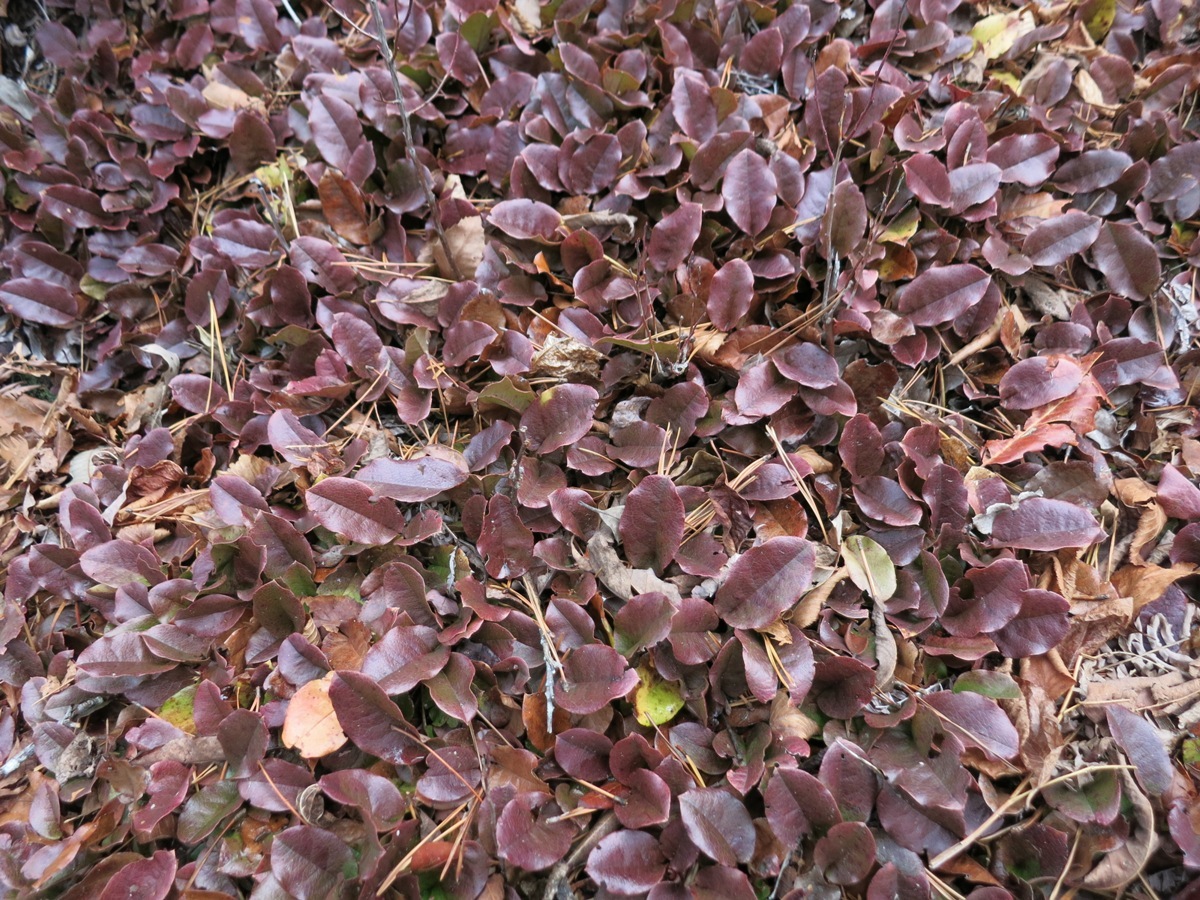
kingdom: Plantae
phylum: Tracheophyta
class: Magnoliopsida
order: Ericales
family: Ericaceae
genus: Epigaea
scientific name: Epigaea repens
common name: Gravelroot
